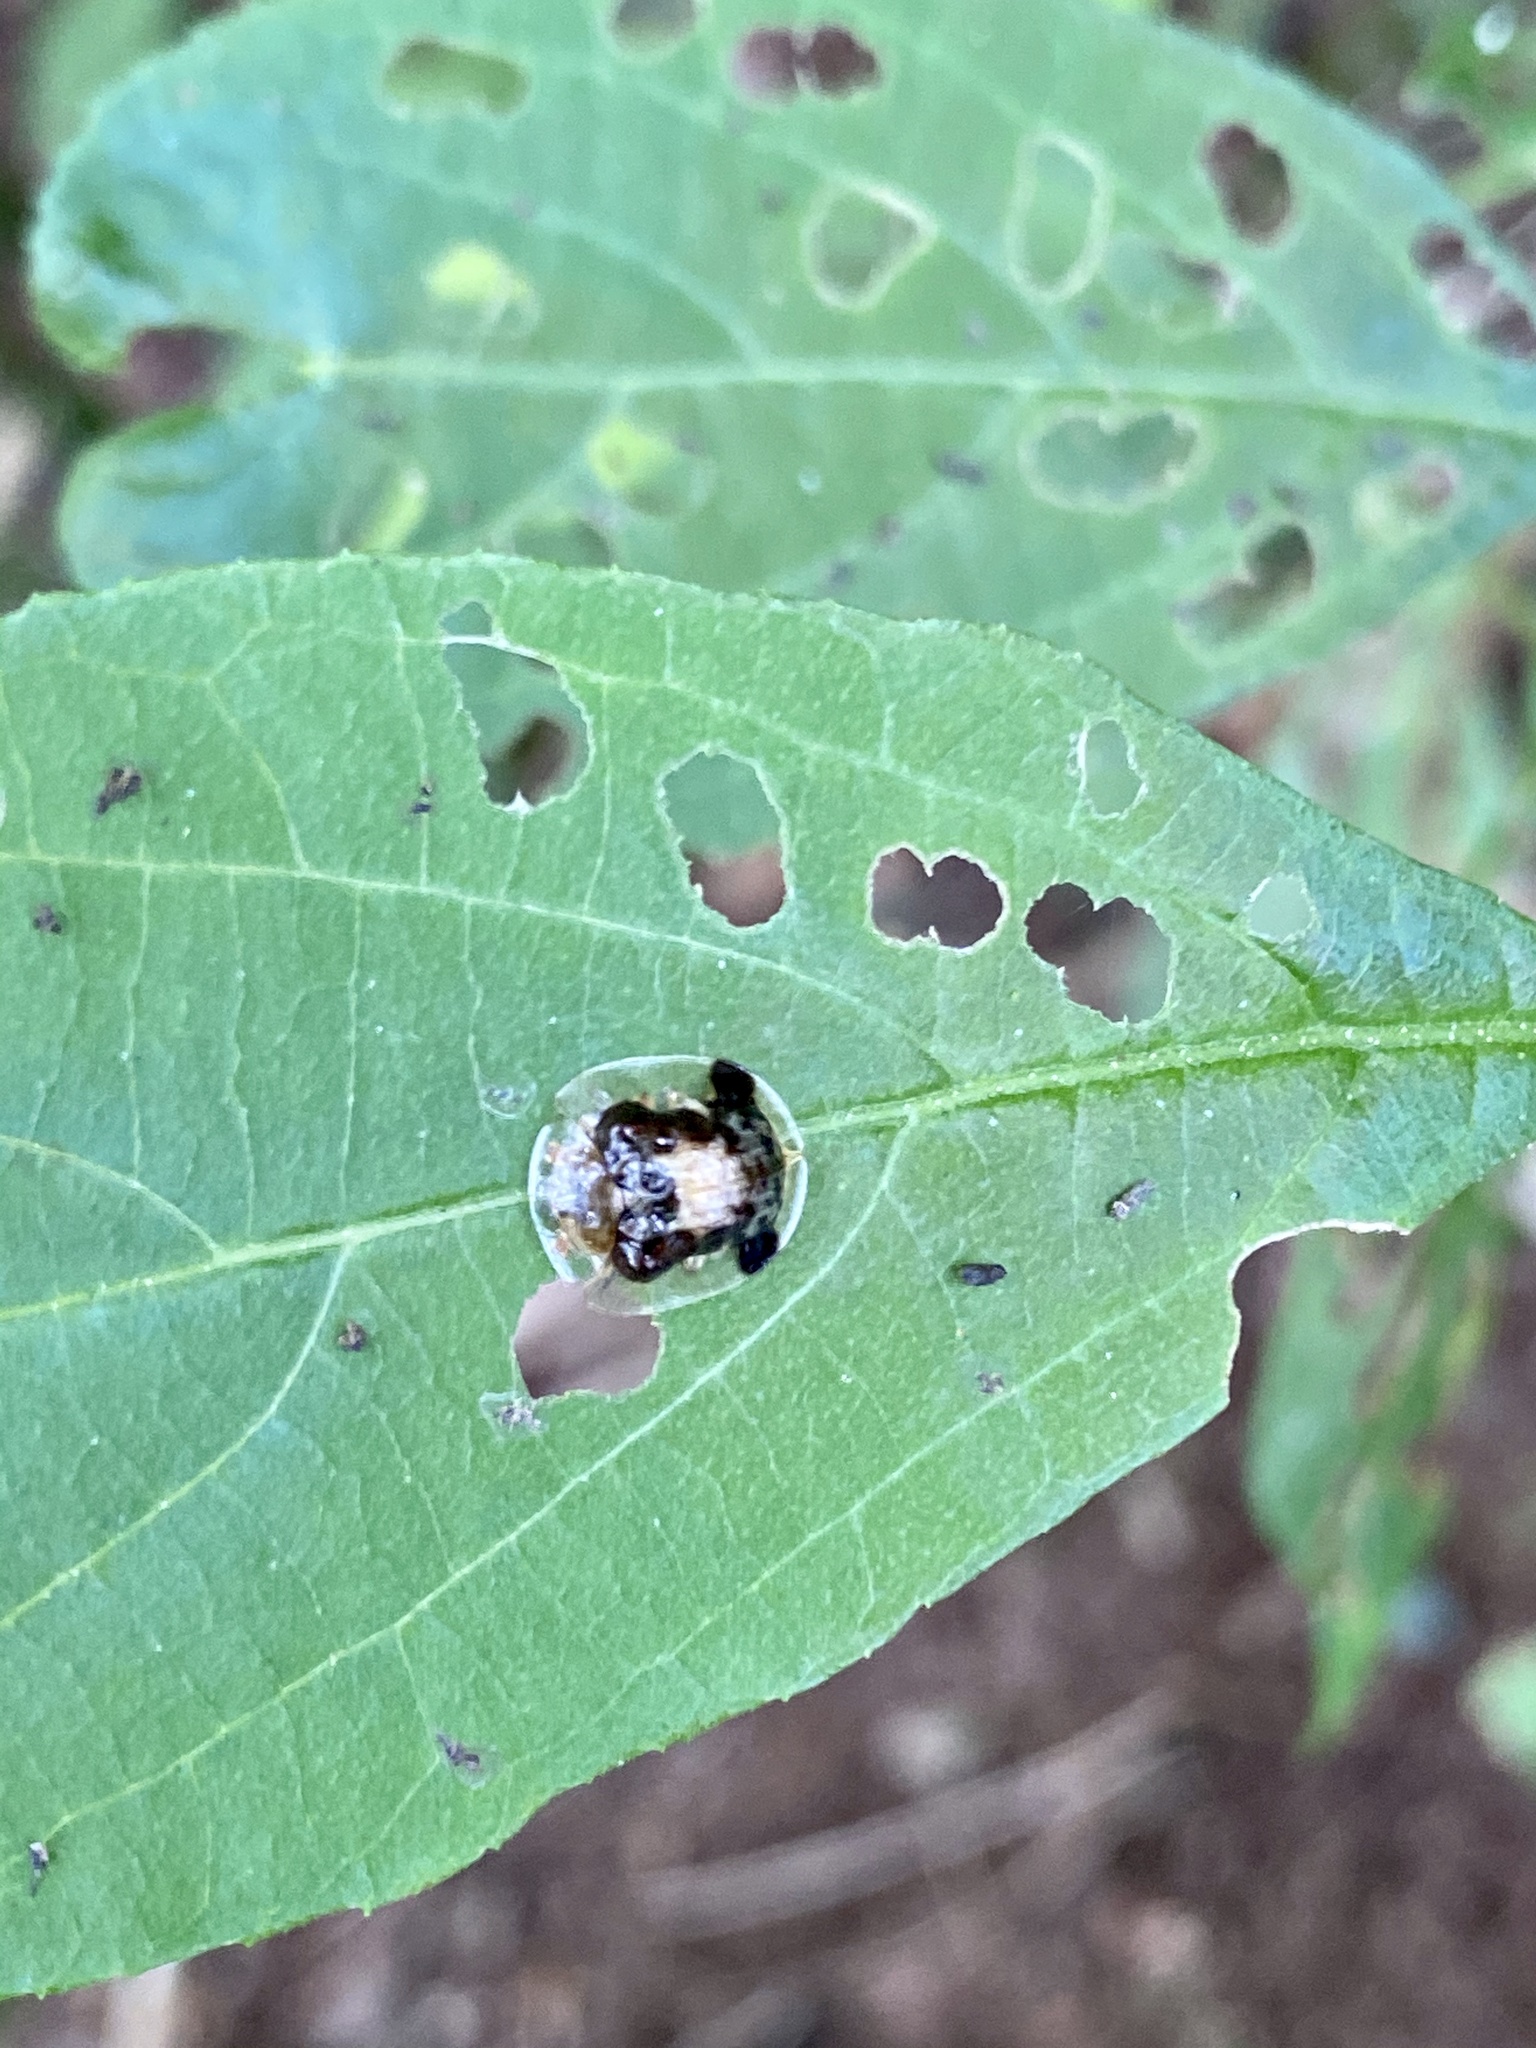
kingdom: Animalia
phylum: Arthropoda
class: Insecta
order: Coleoptera
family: Chrysomelidae
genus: Thlaspida
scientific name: Thlaspida cribrosa
